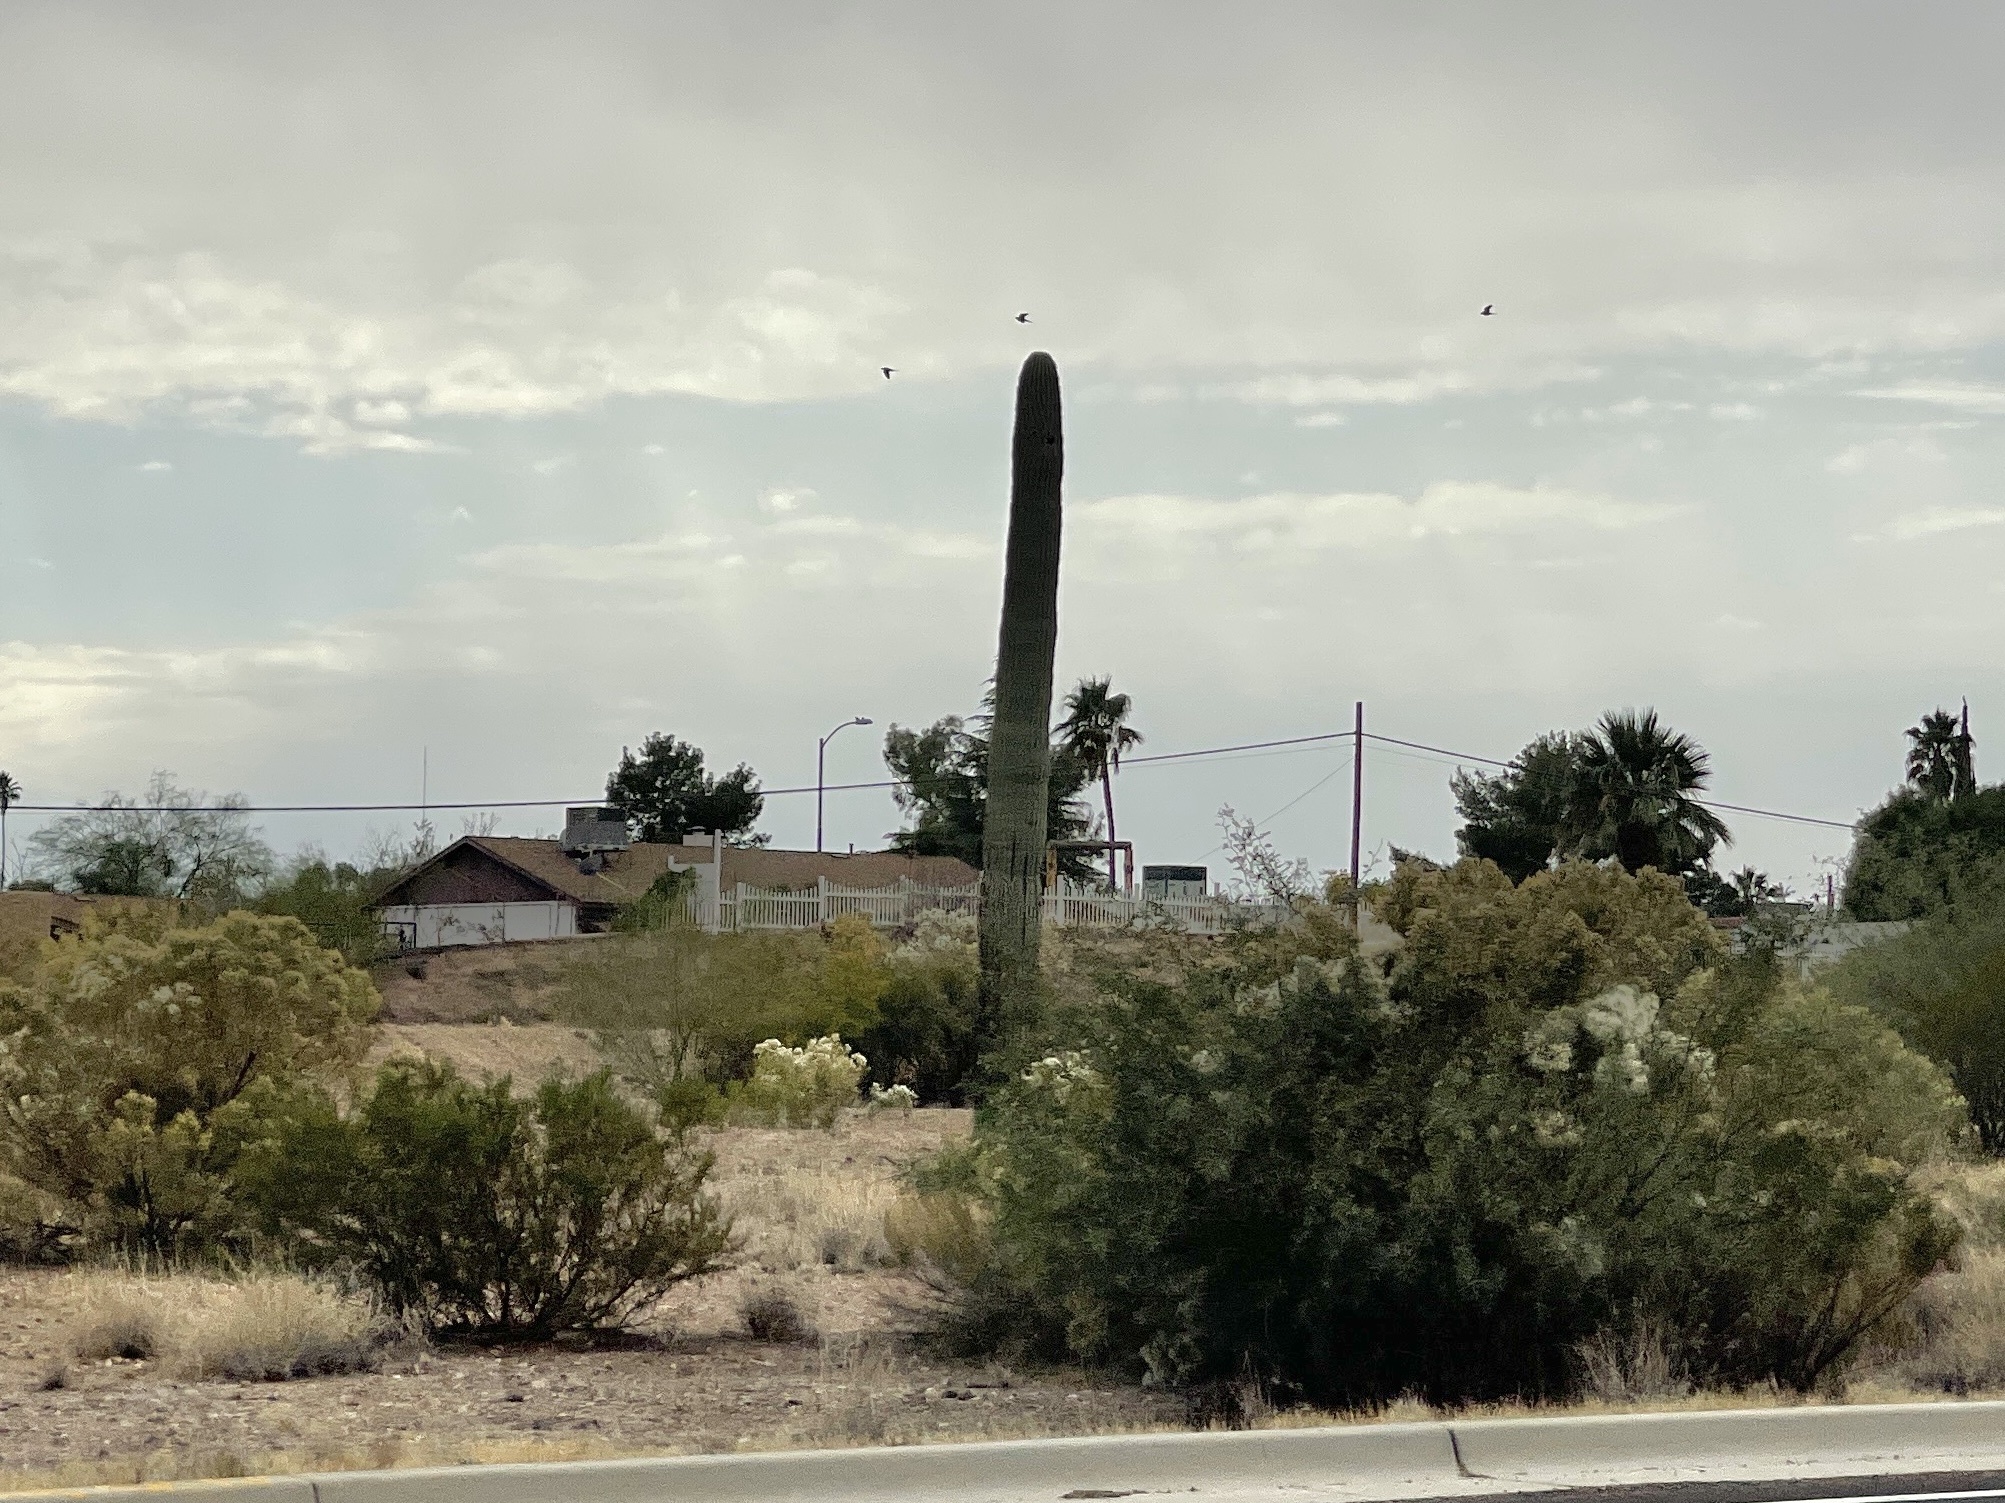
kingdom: Plantae
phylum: Tracheophyta
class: Magnoliopsida
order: Caryophyllales
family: Cactaceae
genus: Carnegiea
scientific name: Carnegiea gigantea
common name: Saguaro
